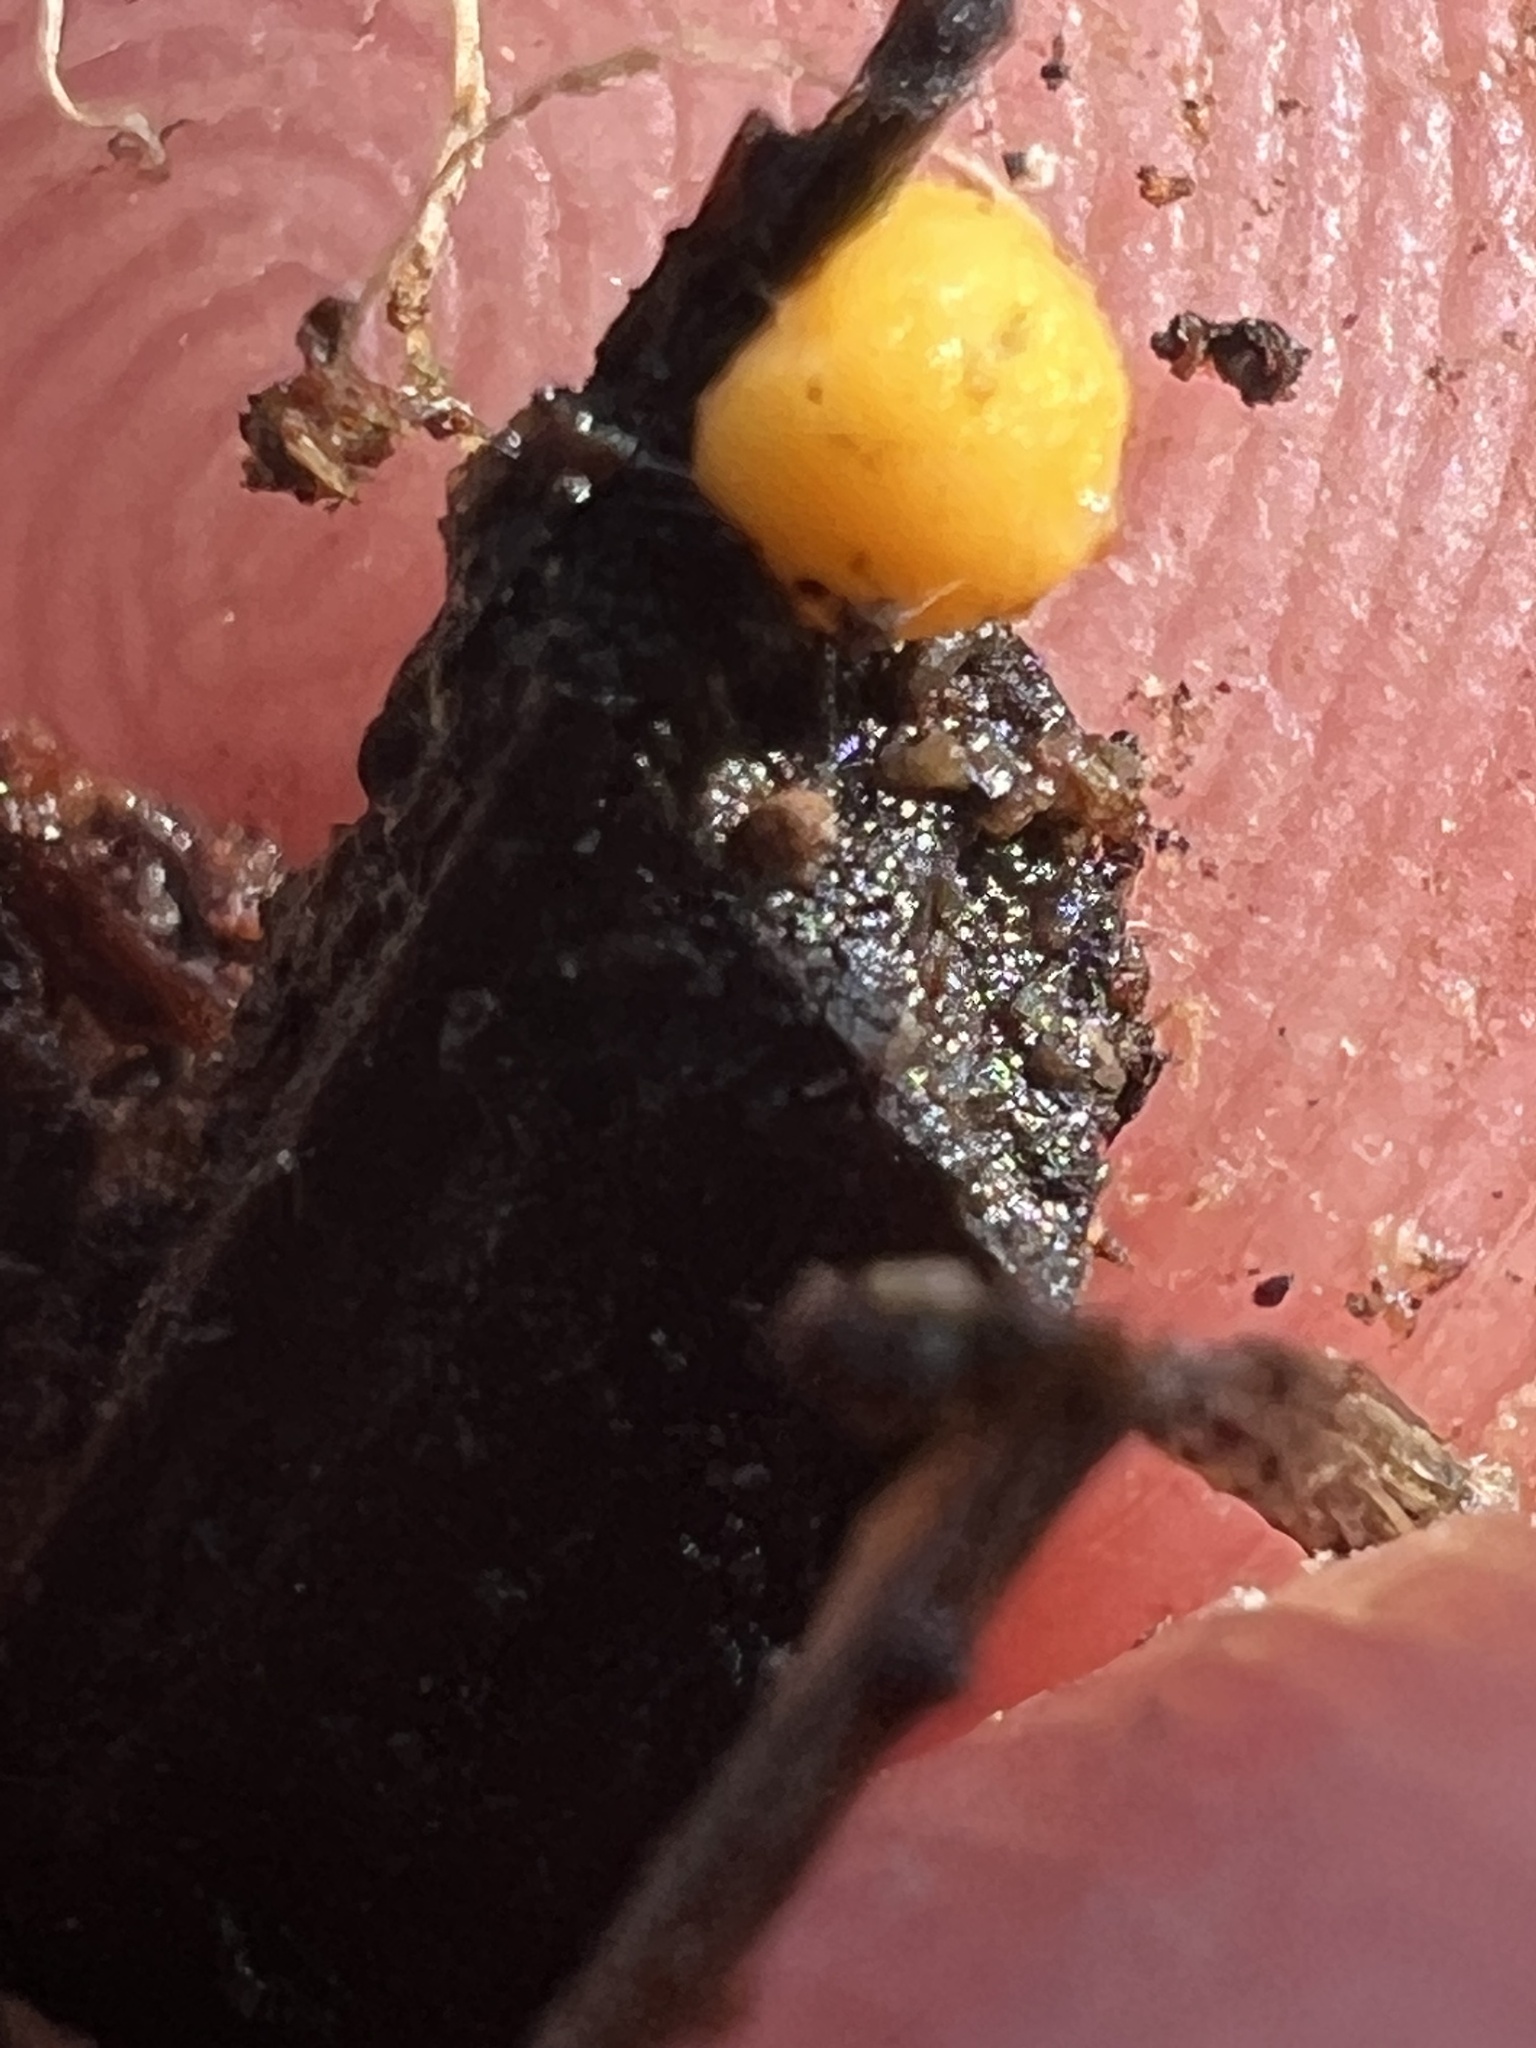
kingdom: Fungi
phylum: Mucoromycota
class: Endogonomycetes
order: Endogonales
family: Endogonaceae
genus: Endogone
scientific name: Endogone pisiformis
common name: Hairy pea truffle
